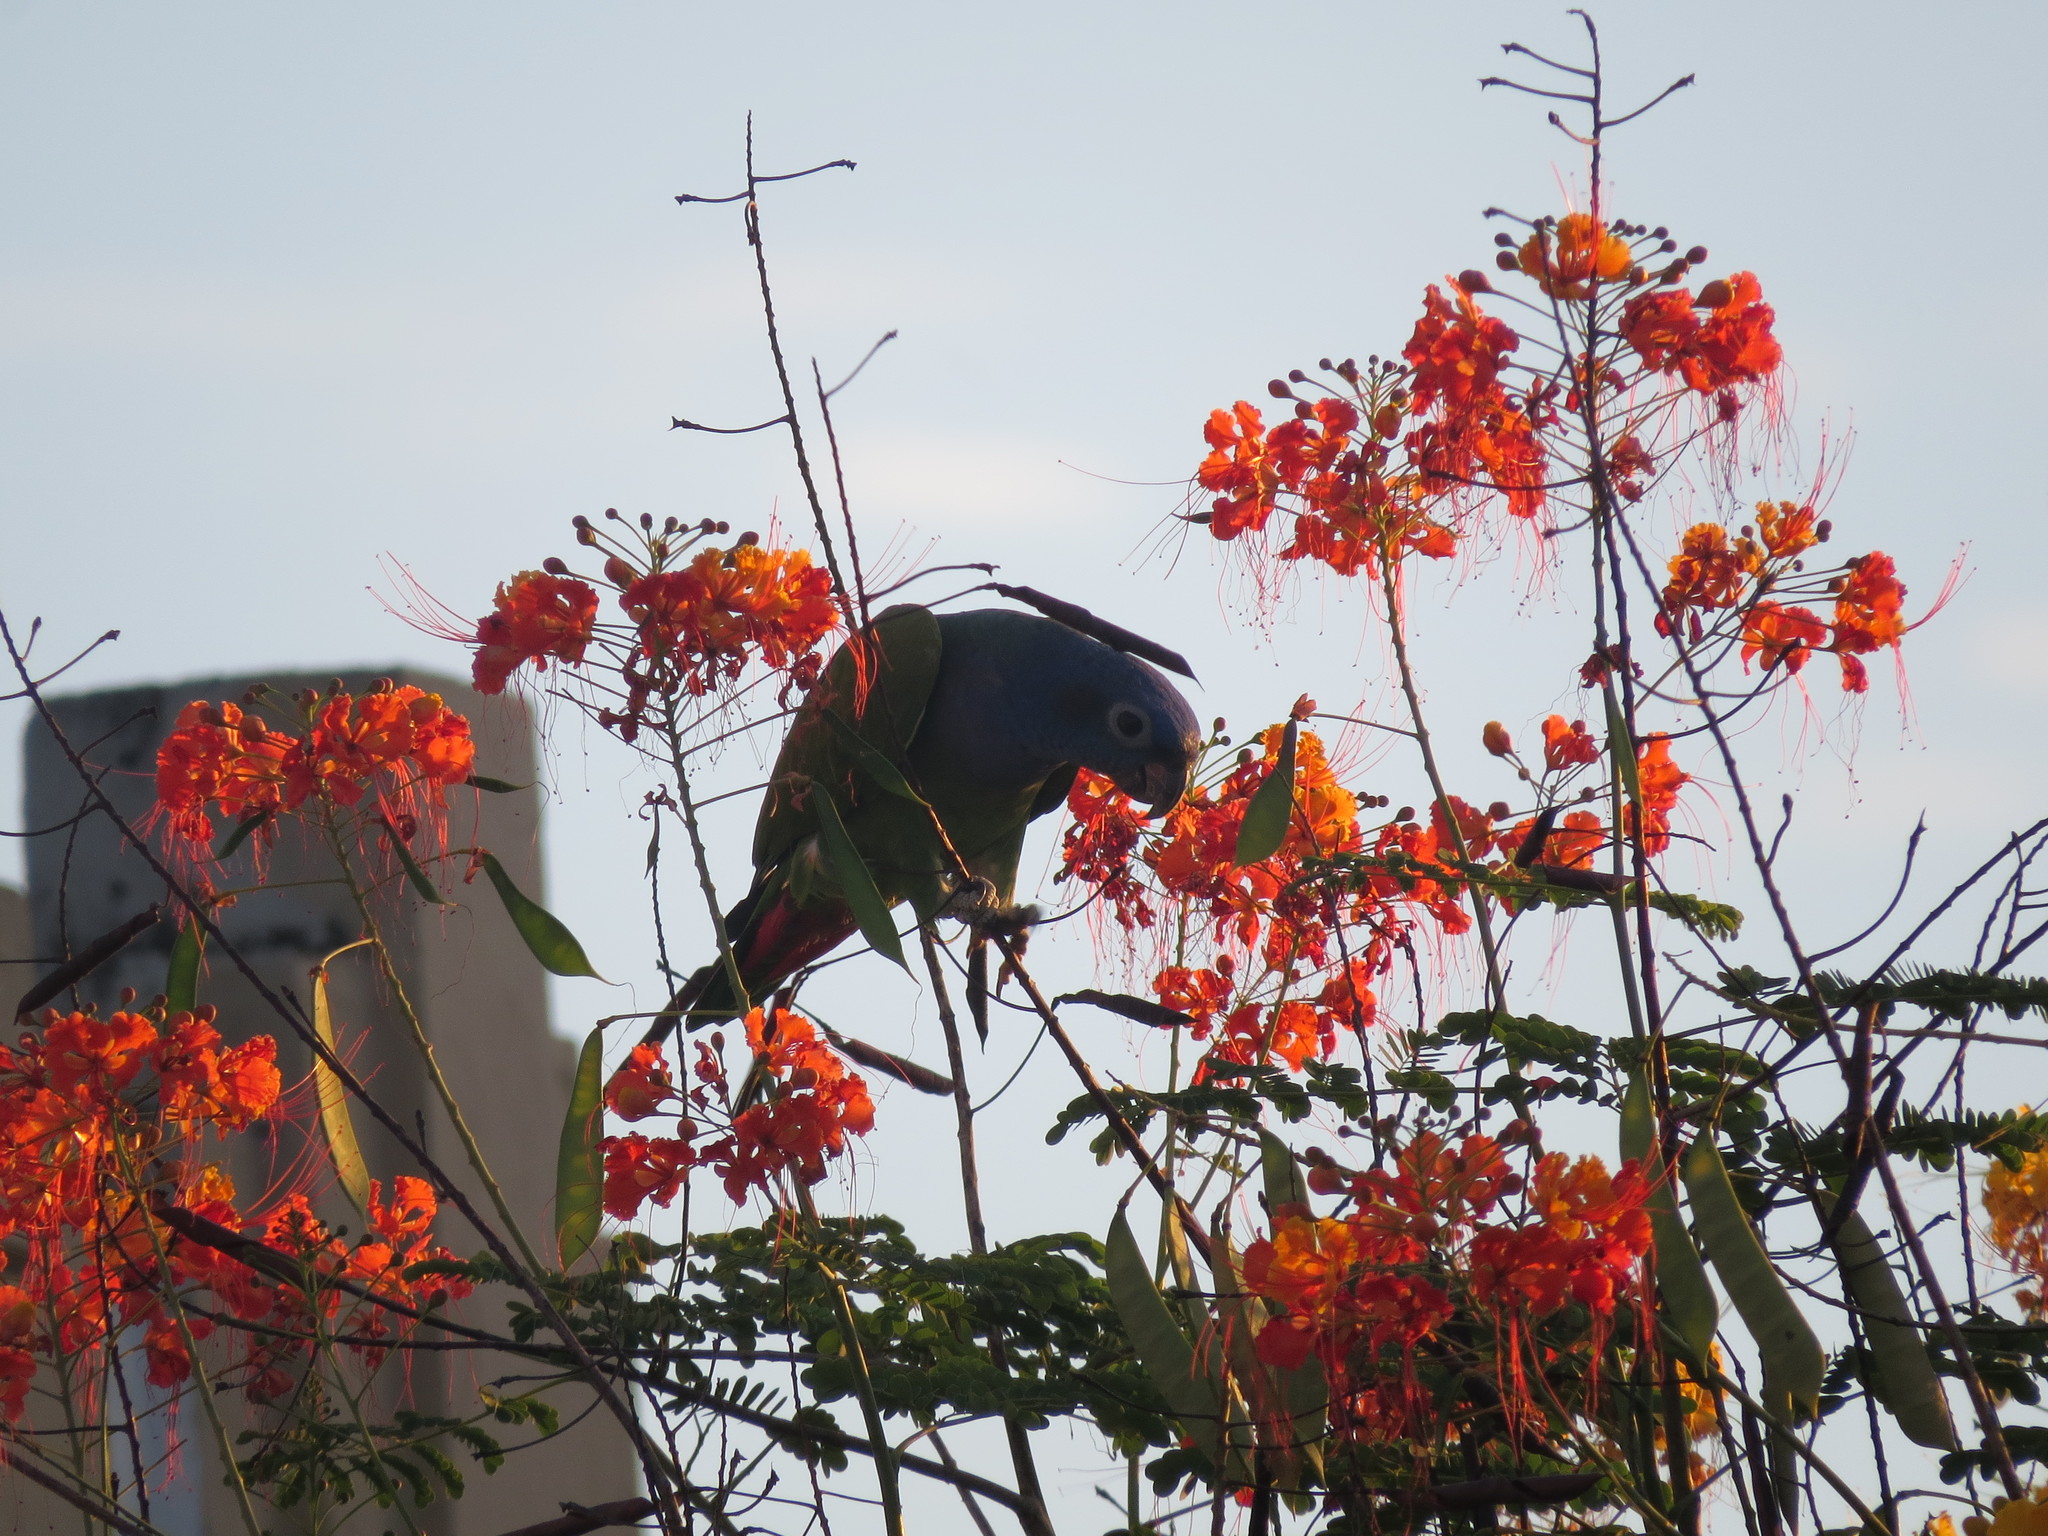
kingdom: Plantae
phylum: Tracheophyta
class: Magnoliopsida
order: Fabales
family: Fabaceae
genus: Caesalpinia
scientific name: Caesalpinia pulcherrima
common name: Pride-of-barbados
